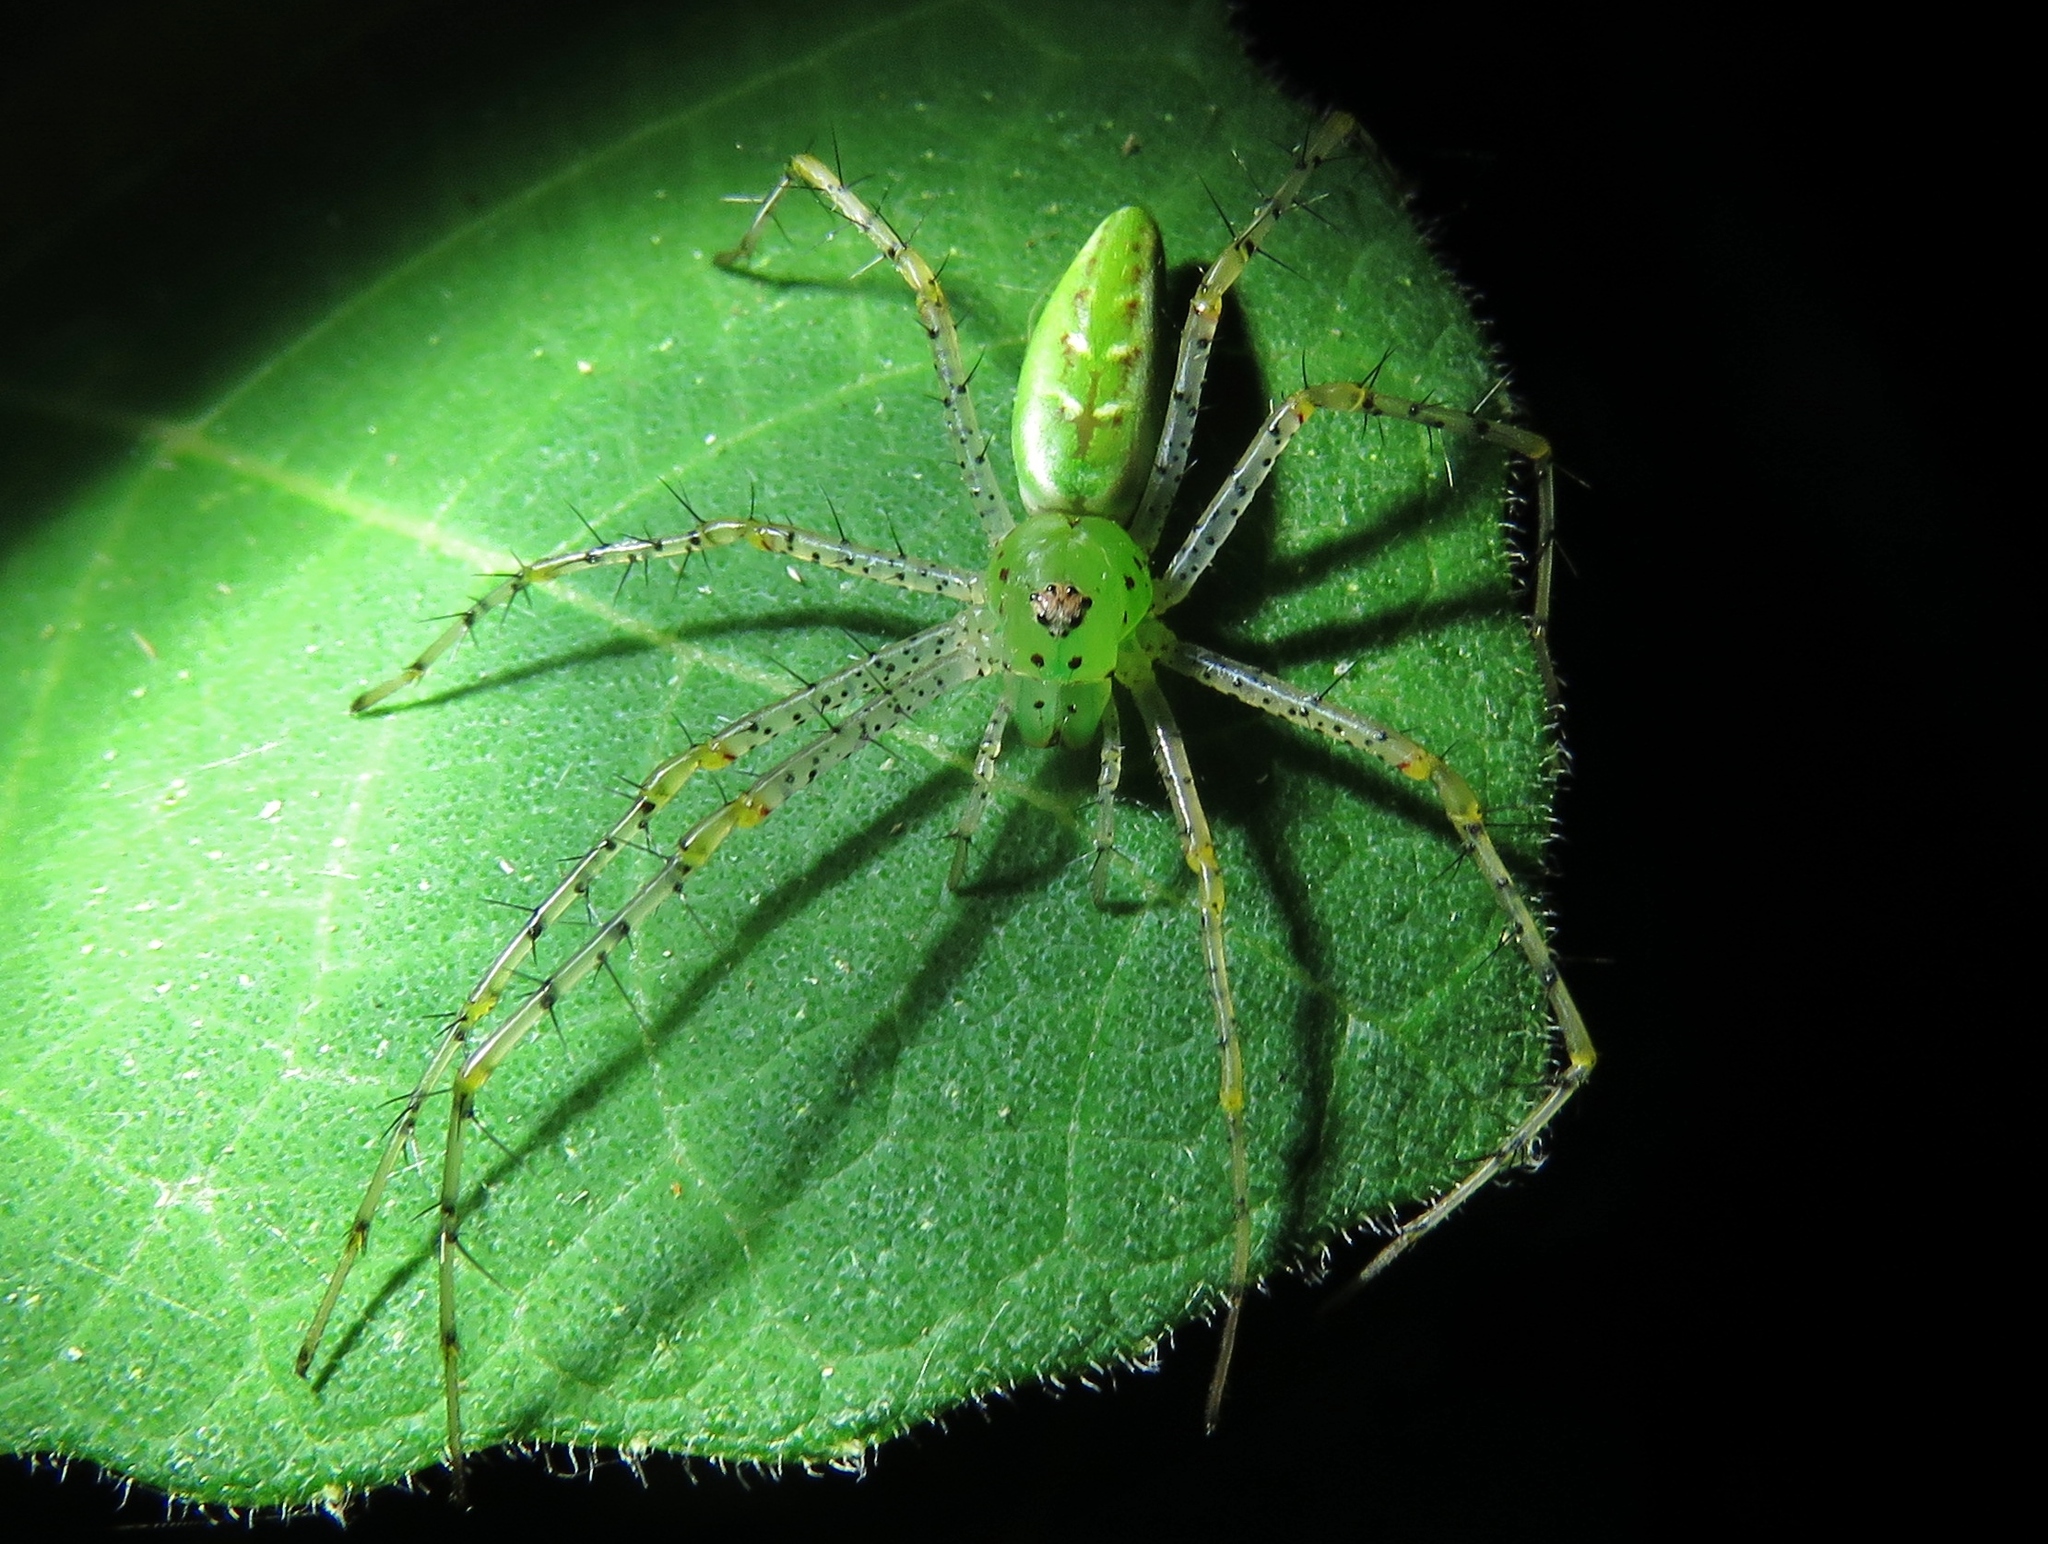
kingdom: Animalia
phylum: Arthropoda
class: Arachnida
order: Araneae
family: Oxyopidae
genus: Peucetia
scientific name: Peucetia viridans
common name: Lynx spiders
